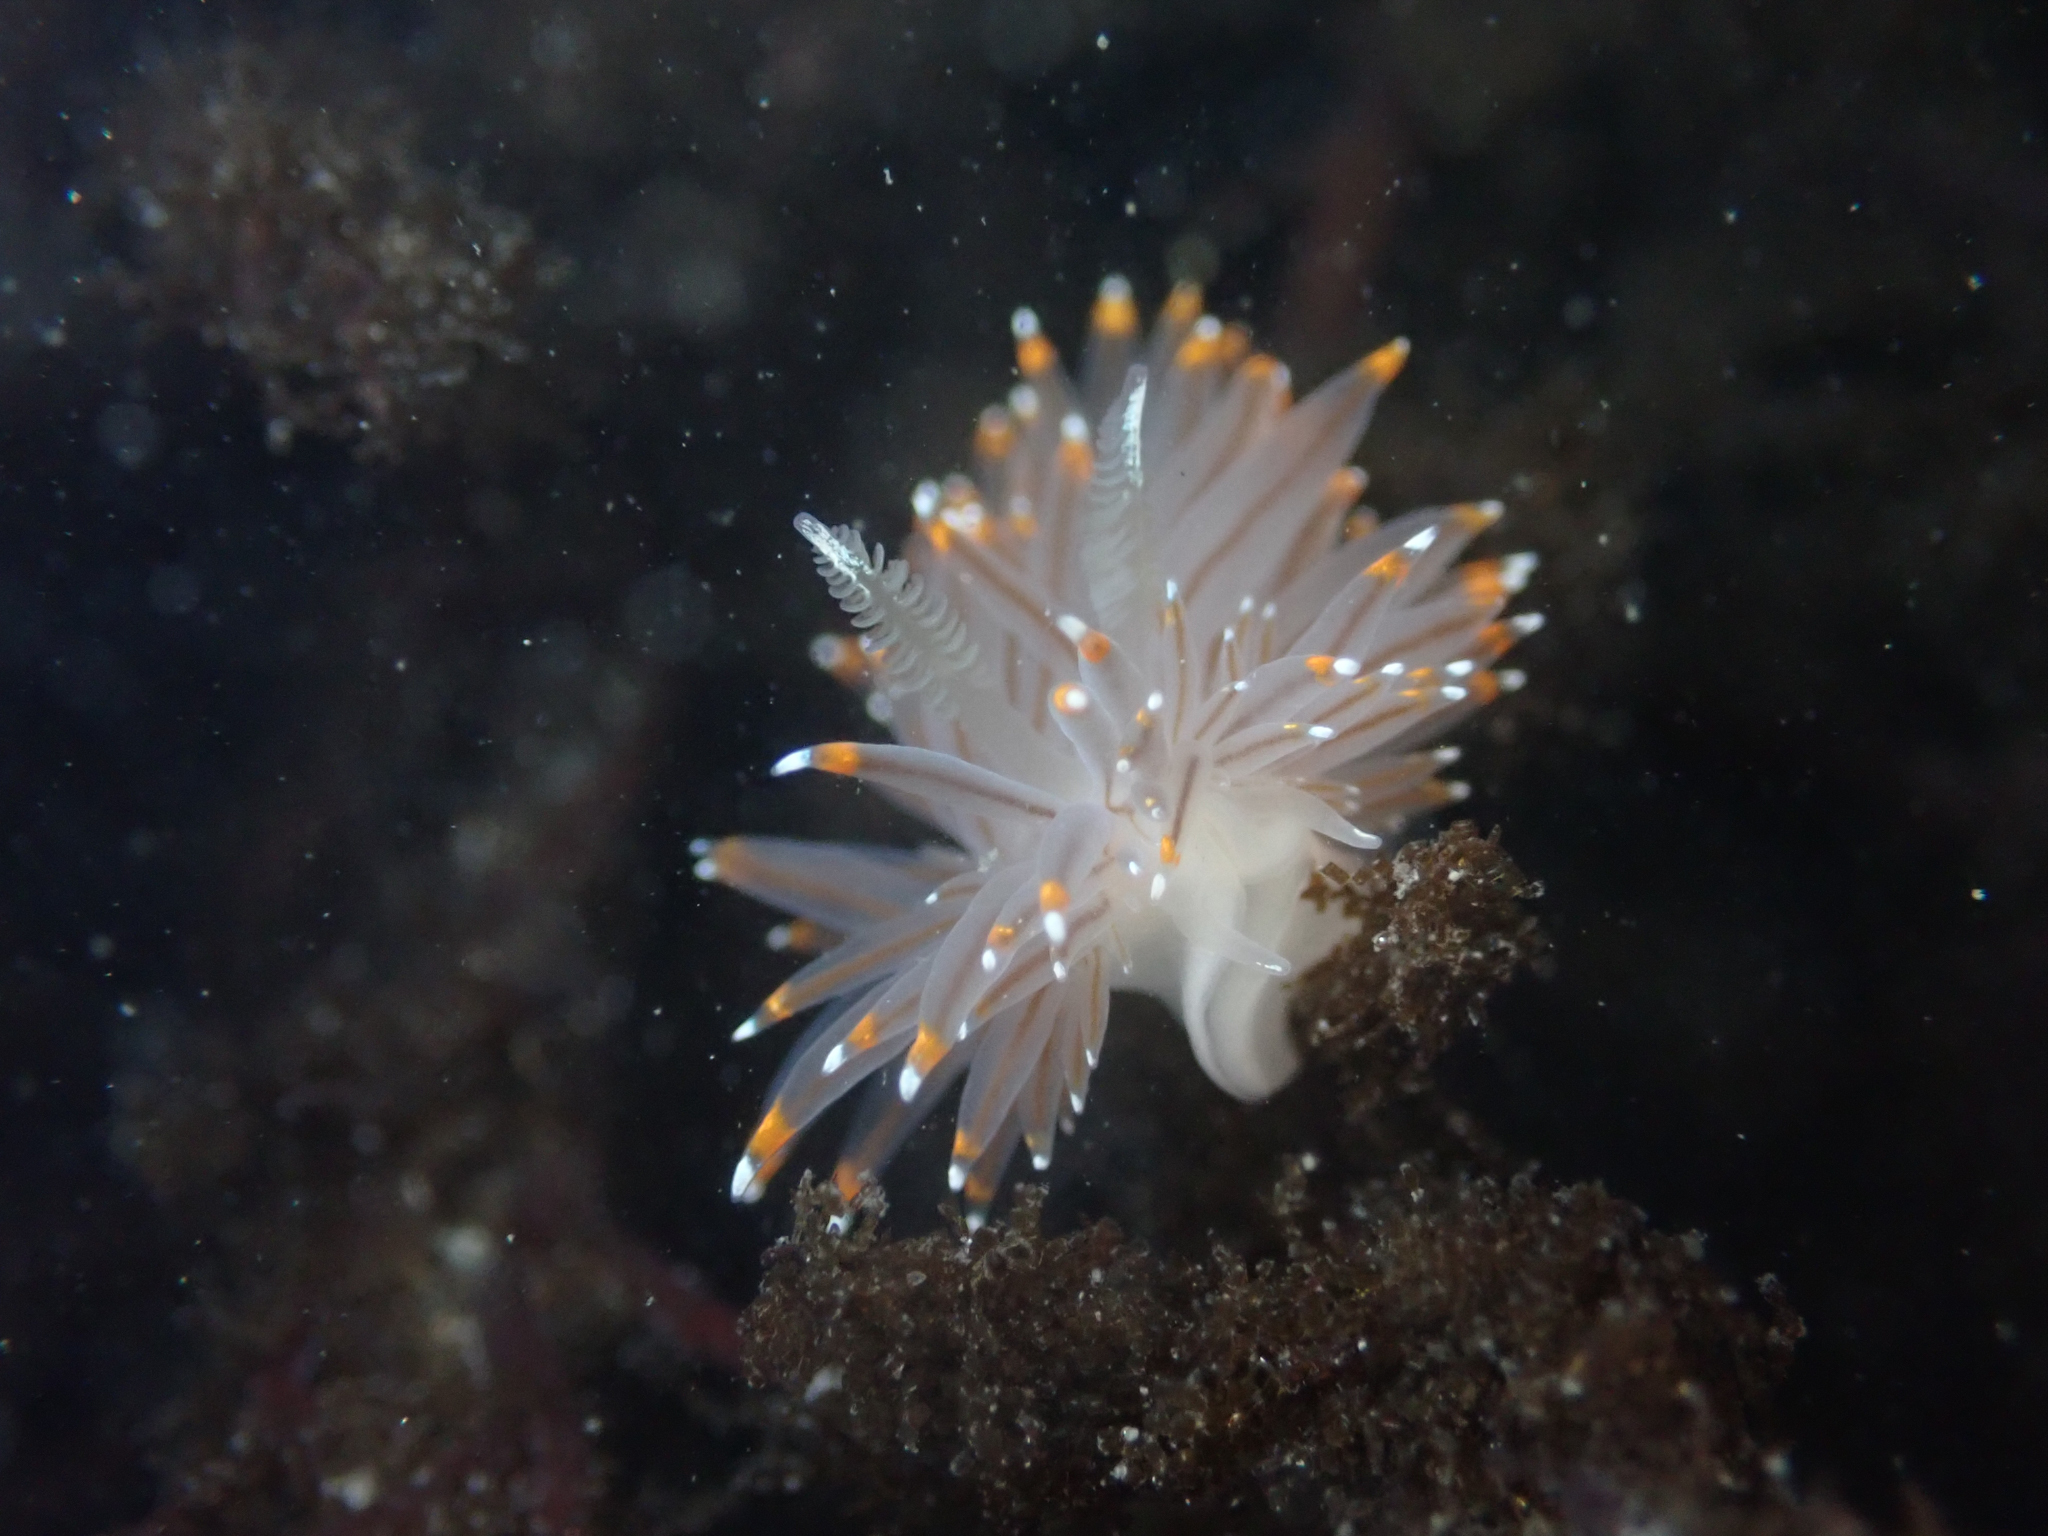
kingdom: Animalia
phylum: Mollusca
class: Gastropoda
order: Nudibranchia
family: Janolidae
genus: Antiopella
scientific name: Antiopella fusca
